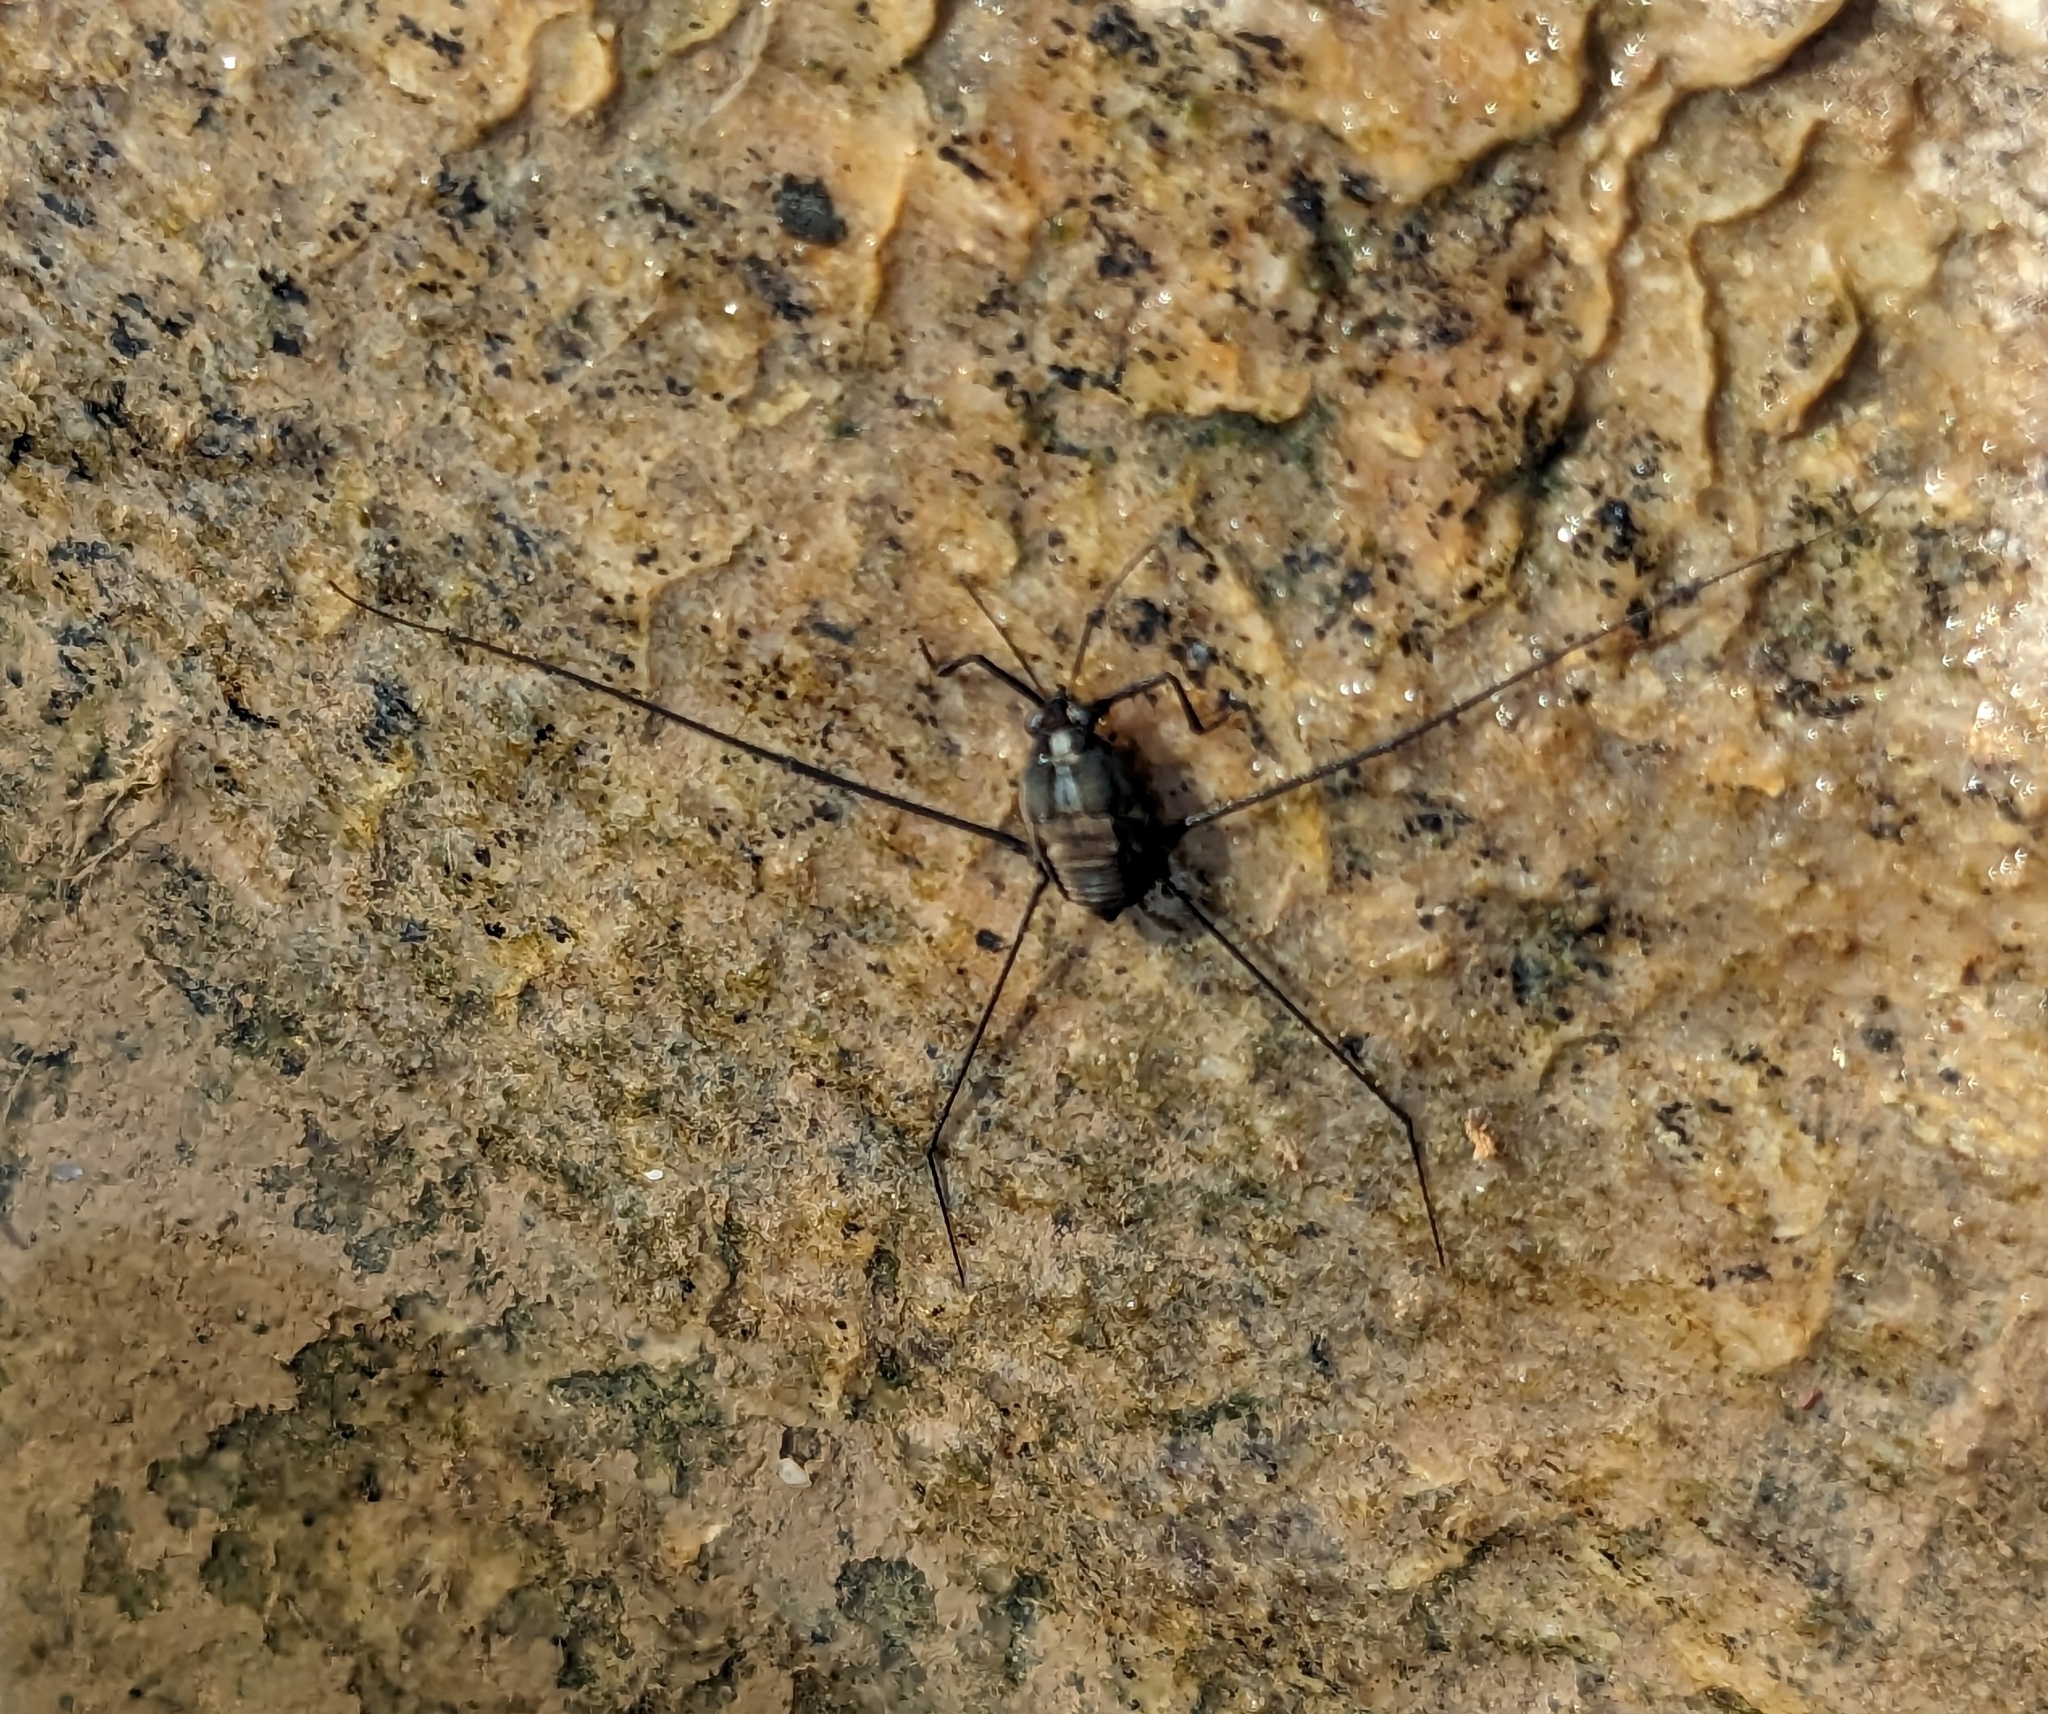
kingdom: Animalia
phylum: Arthropoda
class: Insecta
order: Hemiptera
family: Gerridae
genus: Metrobates
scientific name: Metrobates hesperius
